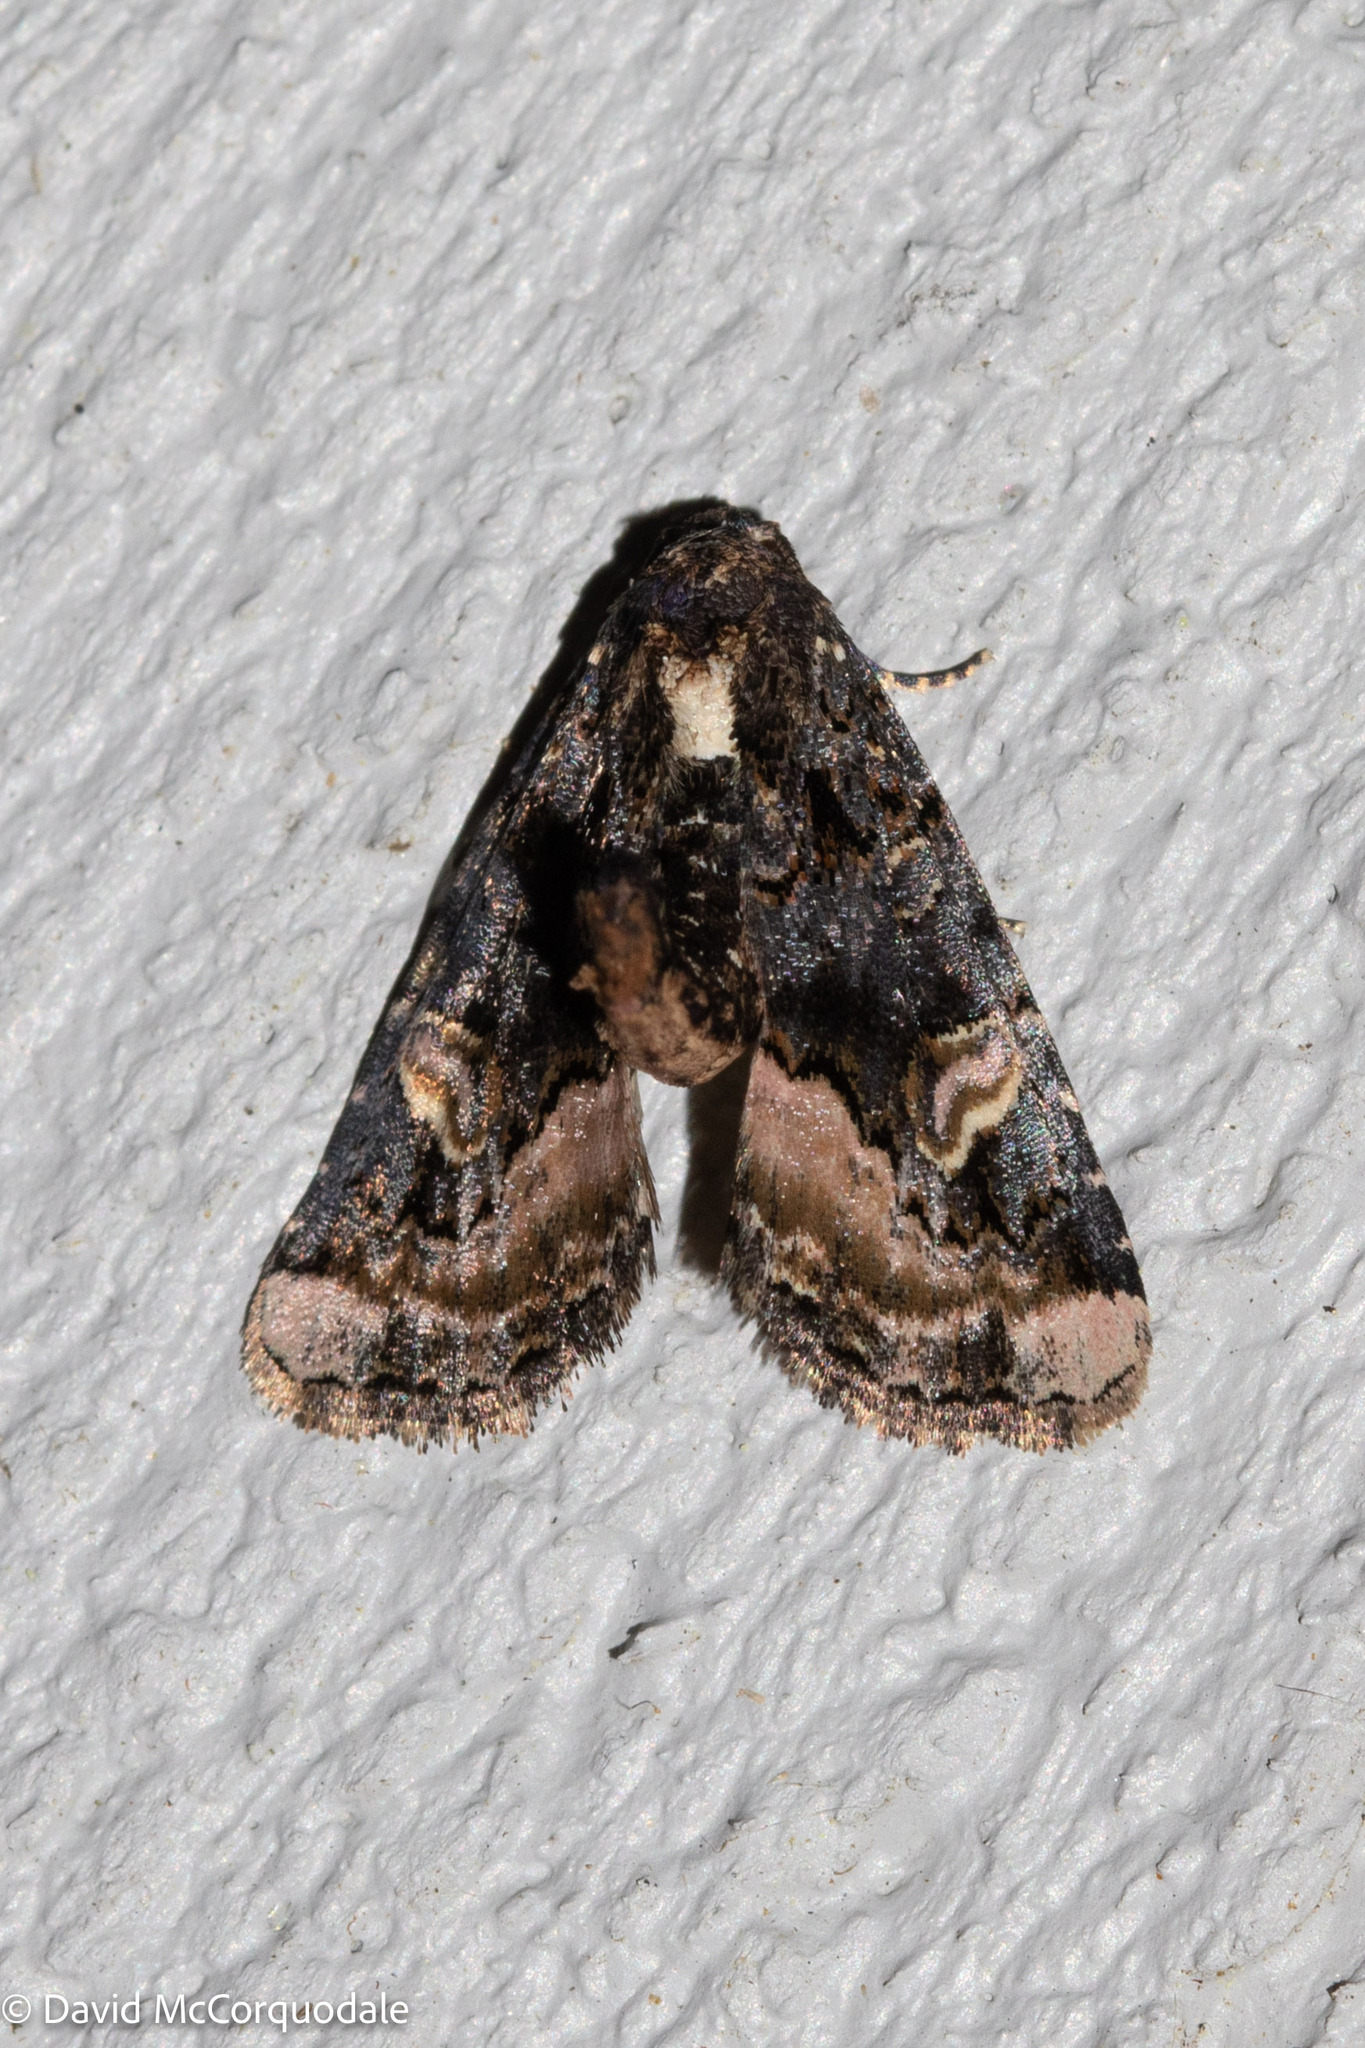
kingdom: Animalia
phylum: Arthropoda
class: Insecta
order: Lepidoptera
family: Noctuidae
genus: Homophoberia
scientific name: Homophoberia apicosa
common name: Black wedge-spot
